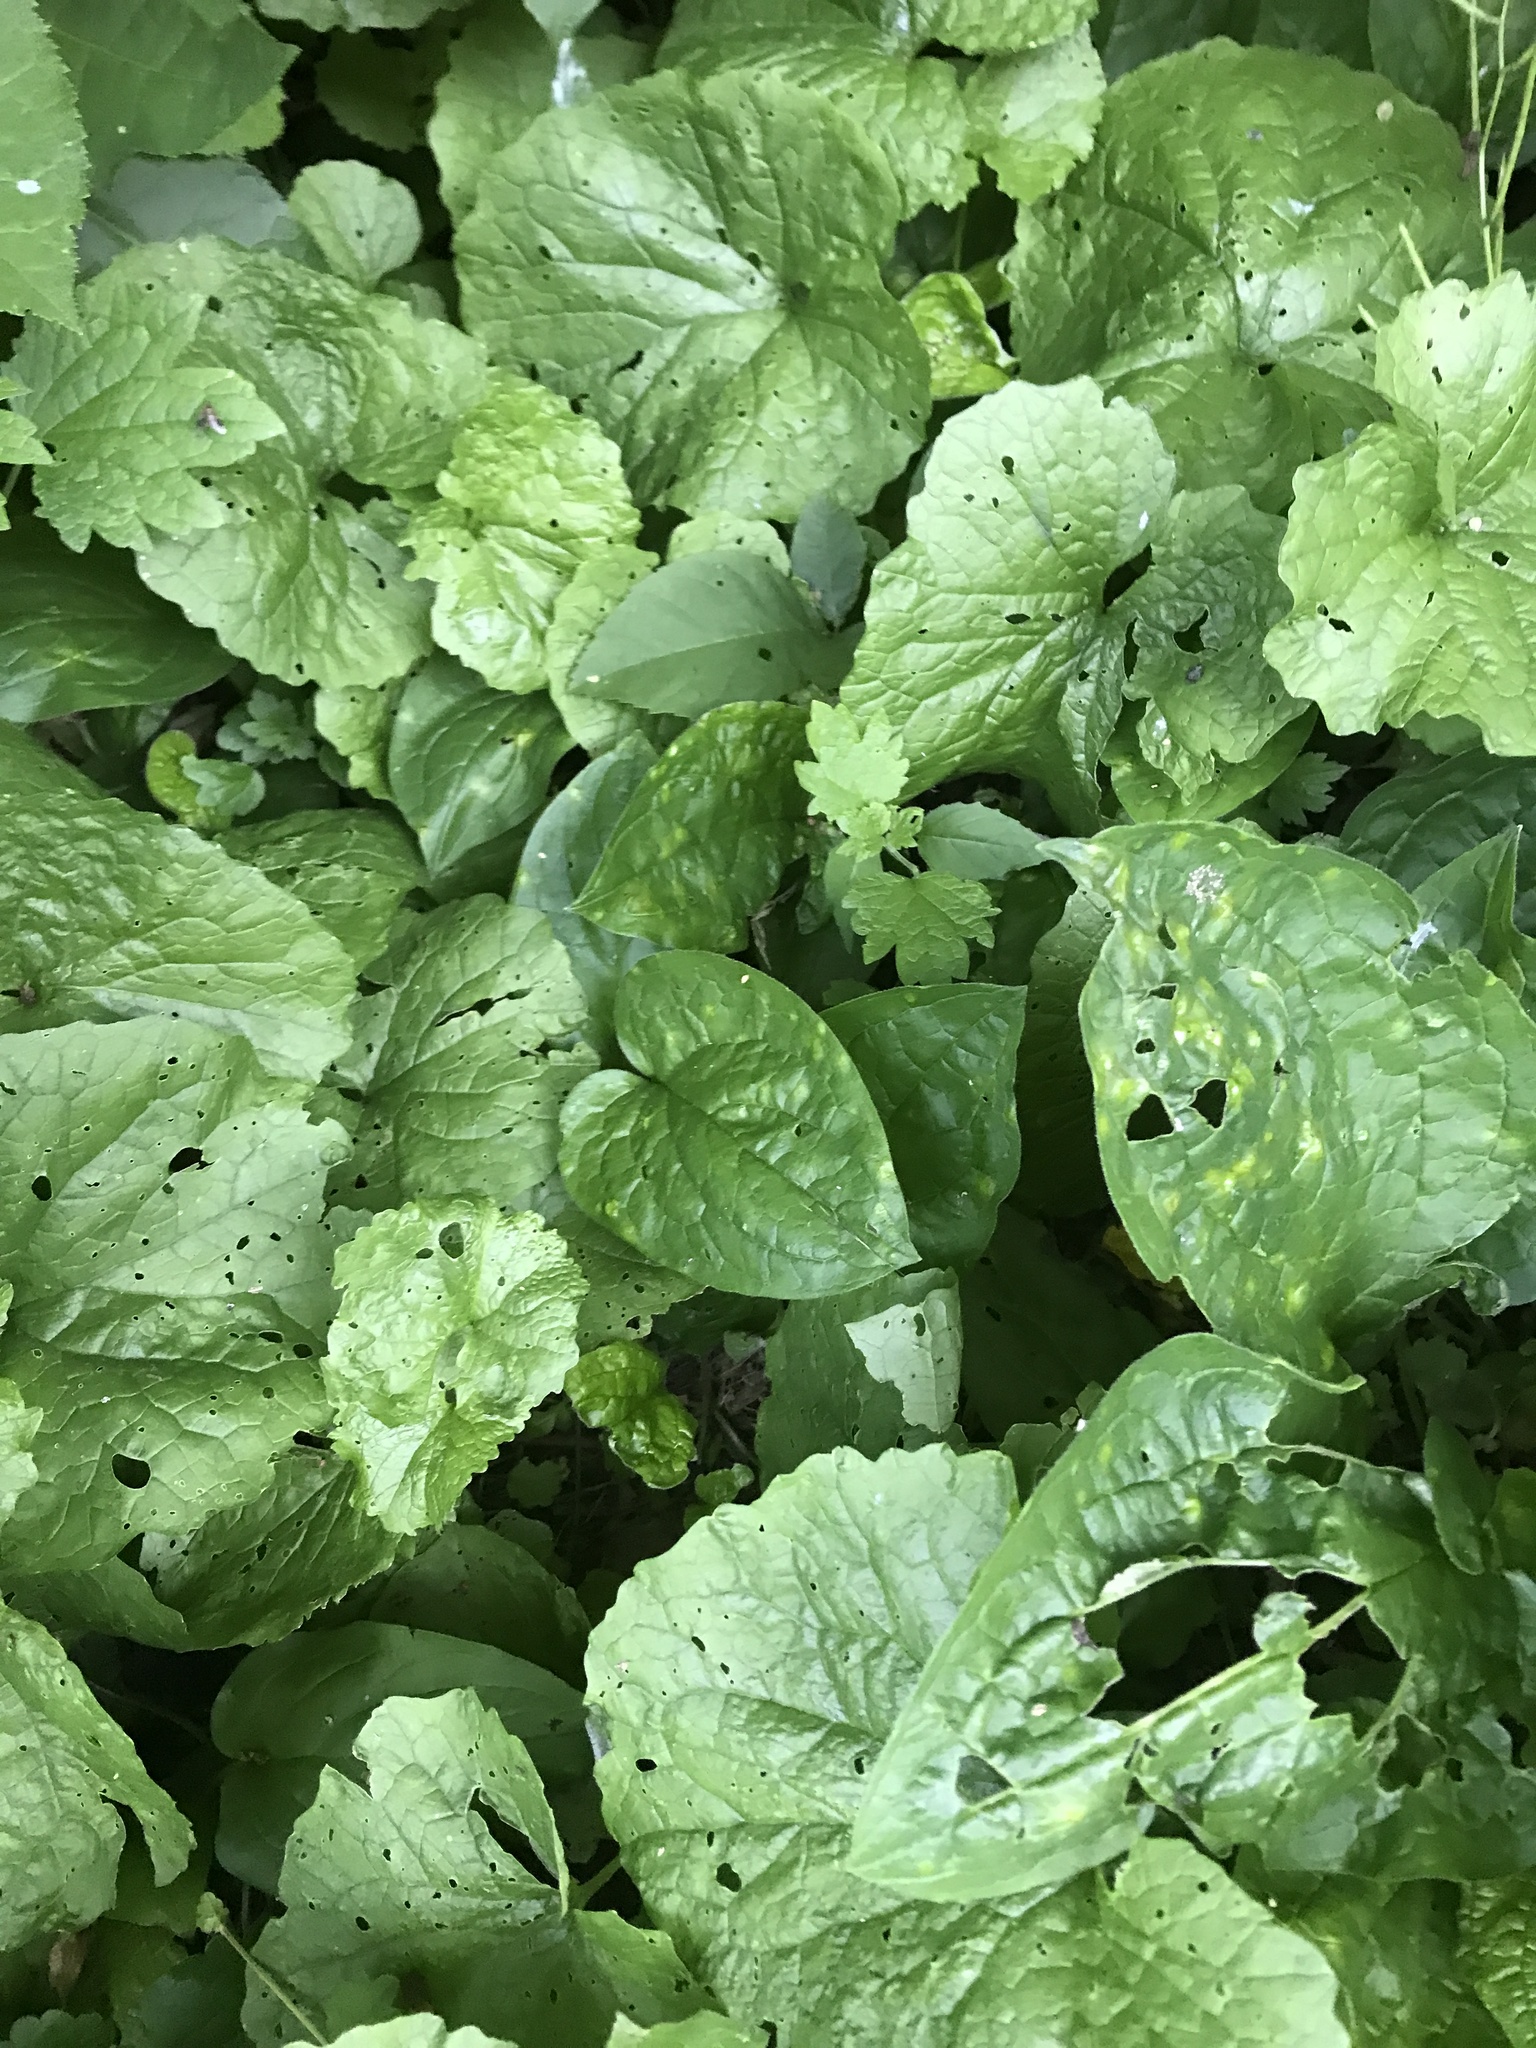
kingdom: Plantae
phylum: Tracheophyta
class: Magnoliopsida
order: Brassicales
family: Brassicaceae
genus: Alliaria
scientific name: Alliaria petiolata
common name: Garlic mustard
